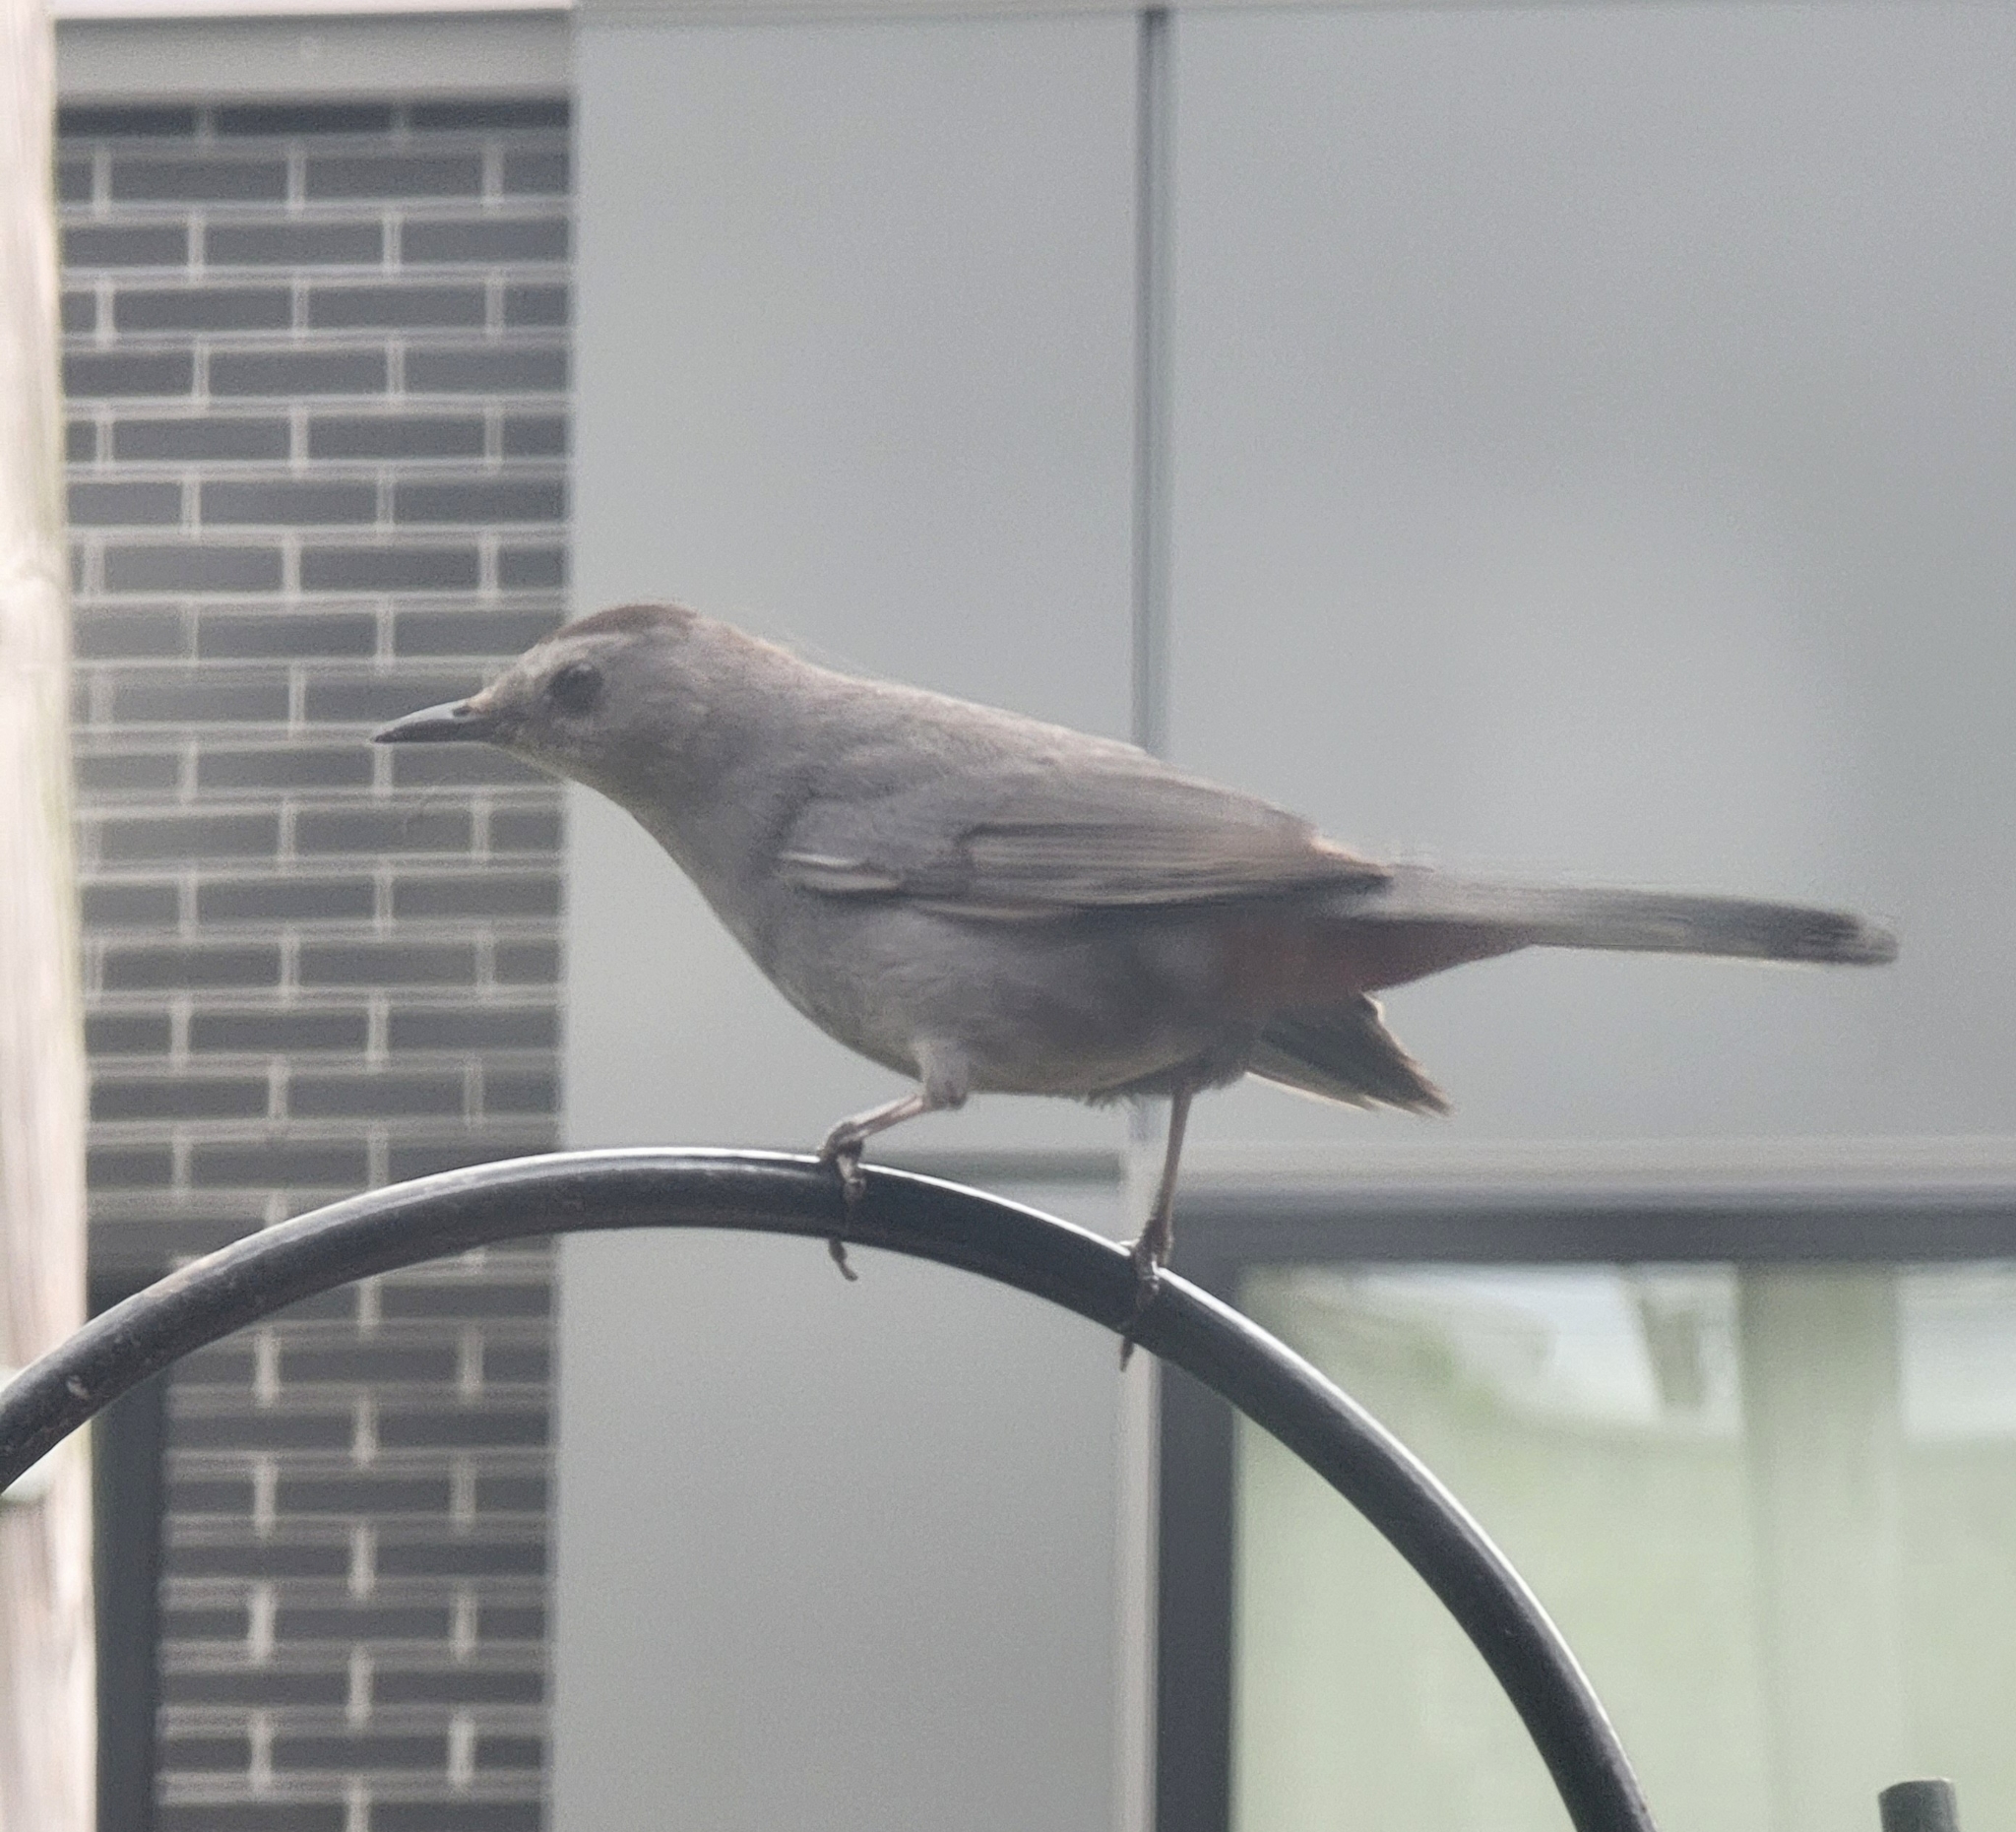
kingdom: Animalia
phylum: Chordata
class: Aves
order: Passeriformes
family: Mimidae
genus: Dumetella
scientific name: Dumetella carolinensis
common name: Gray catbird
